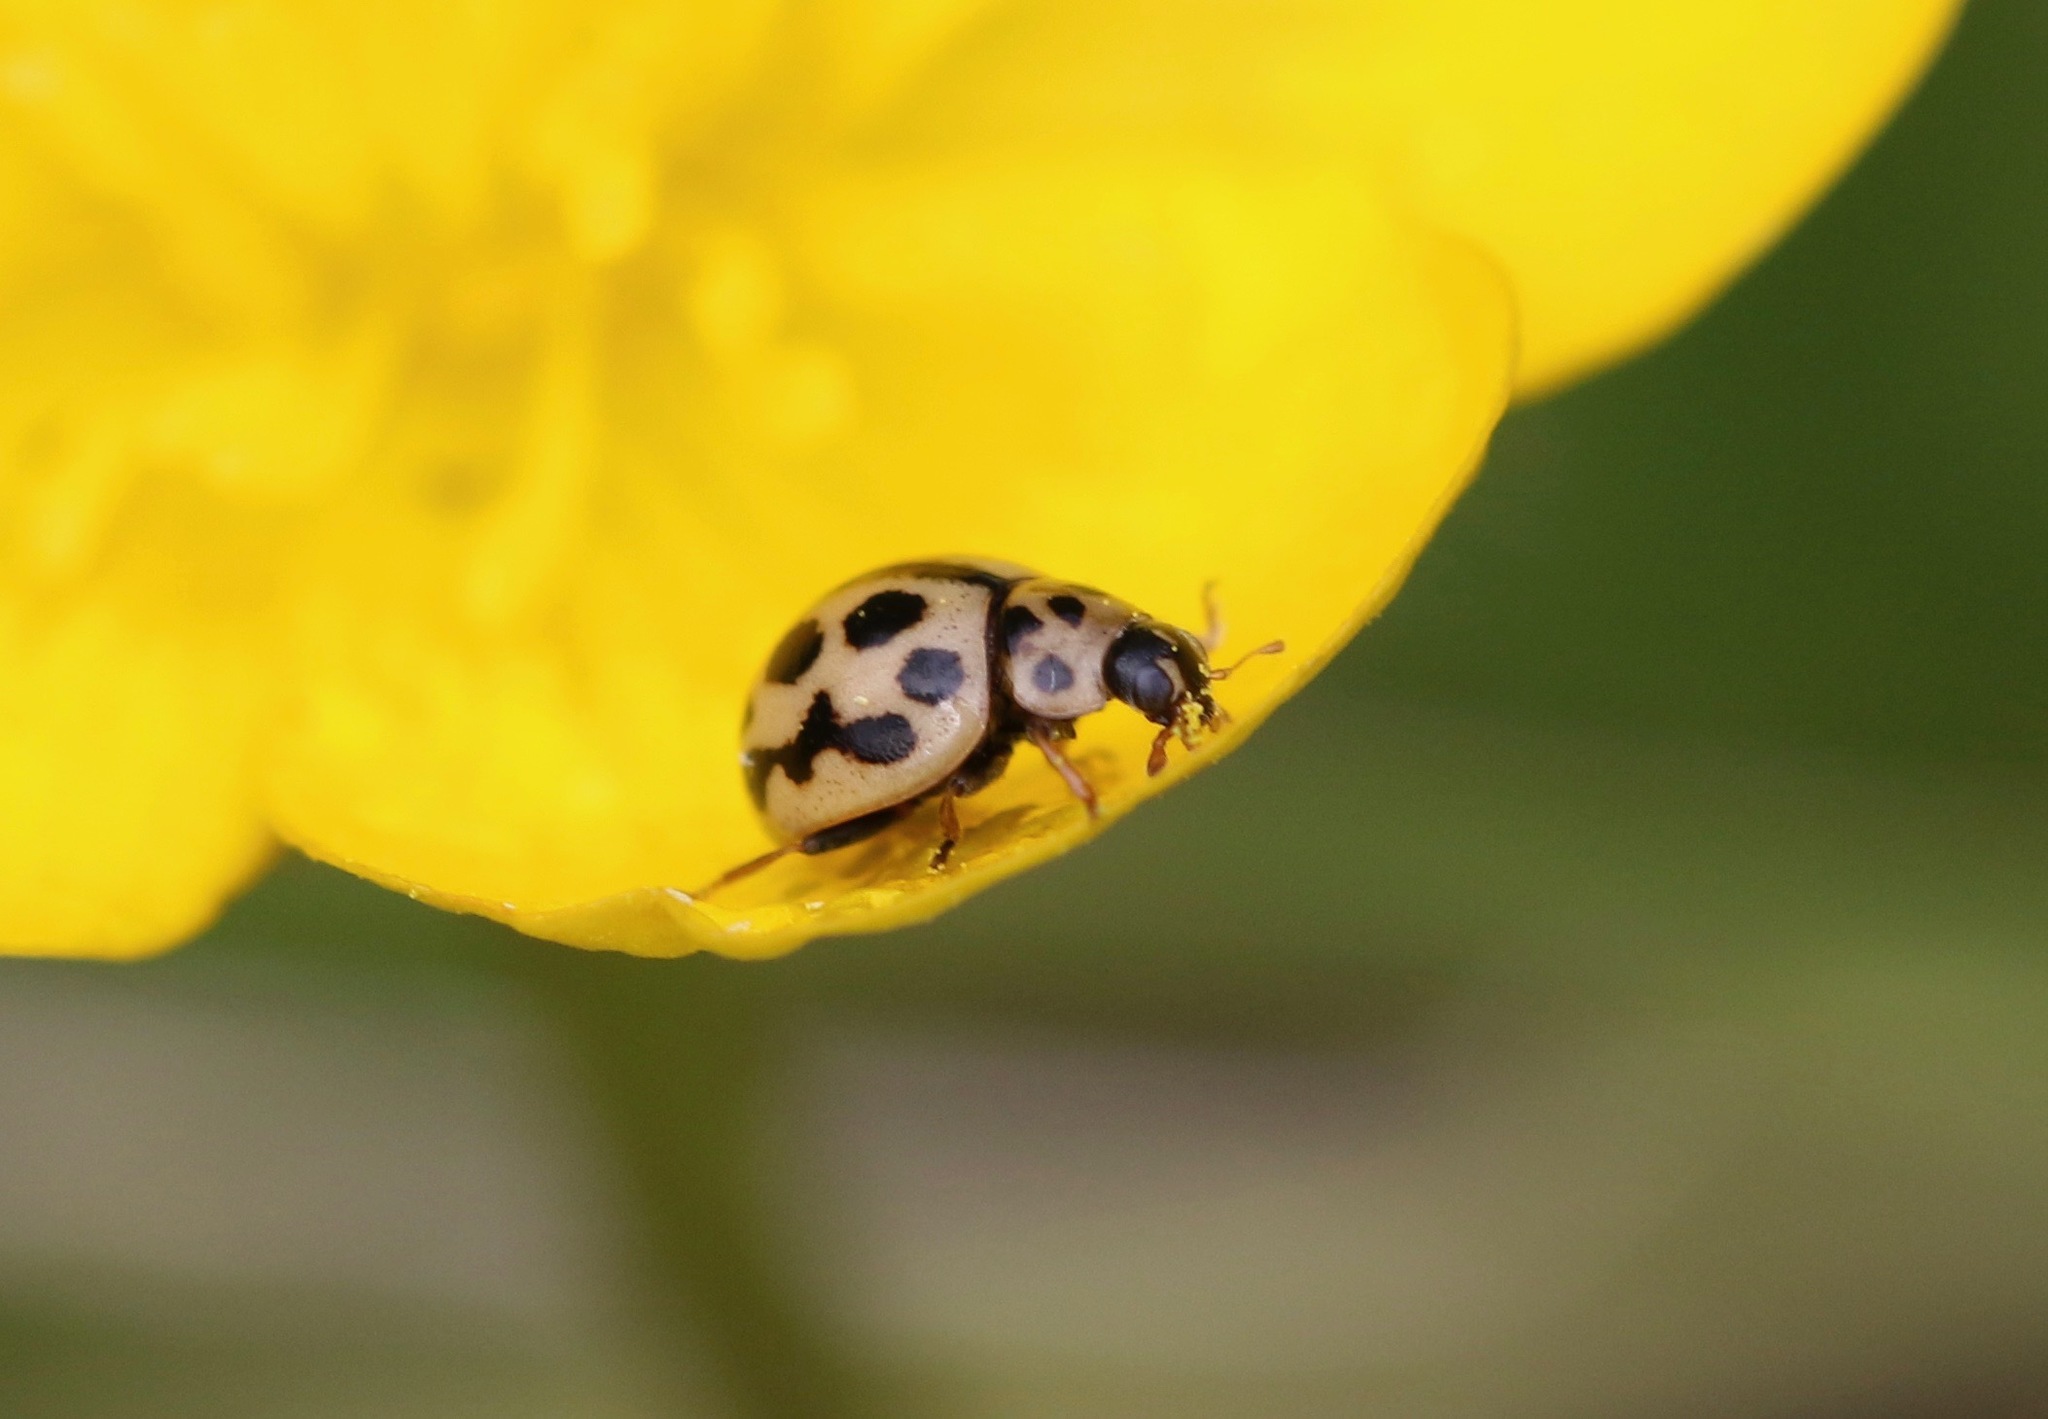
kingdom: Animalia
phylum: Arthropoda
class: Insecta
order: Coleoptera
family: Coccinellidae
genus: Tytthaspis
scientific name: Tytthaspis sedecimpunctata
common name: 16-spot ladybird
